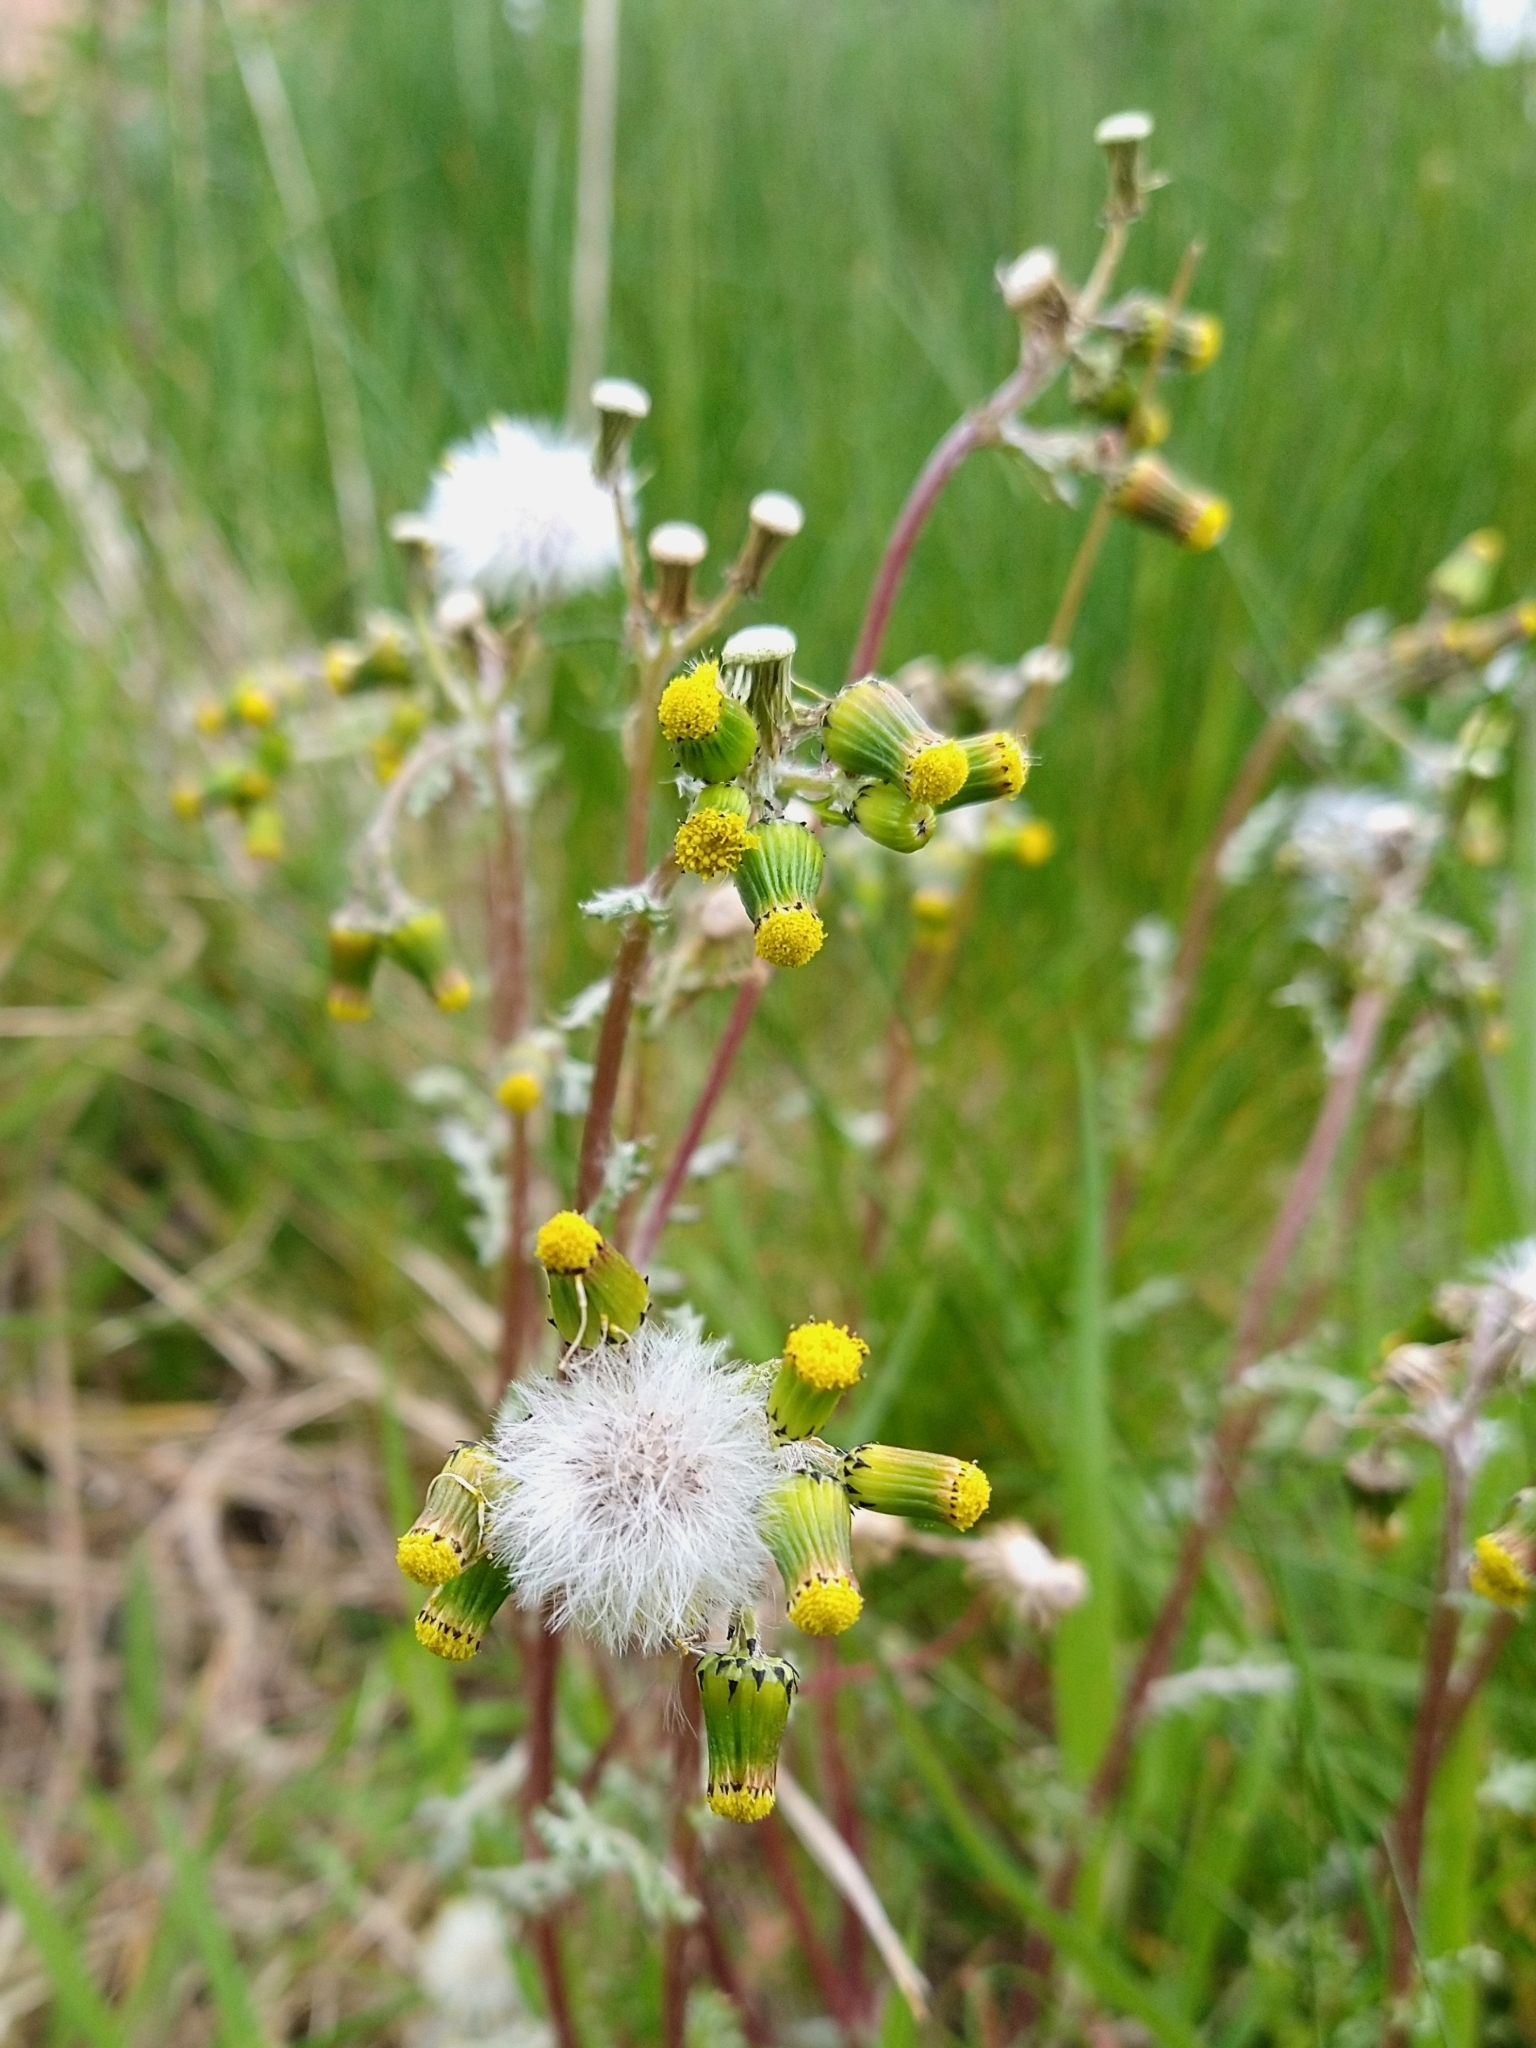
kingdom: Plantae
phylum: Tracheophyta
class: Magnoliopsida
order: Asterales
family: Asteraceae
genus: Senecio
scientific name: Senecio vulgaris
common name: Old-man-in-the-spring
